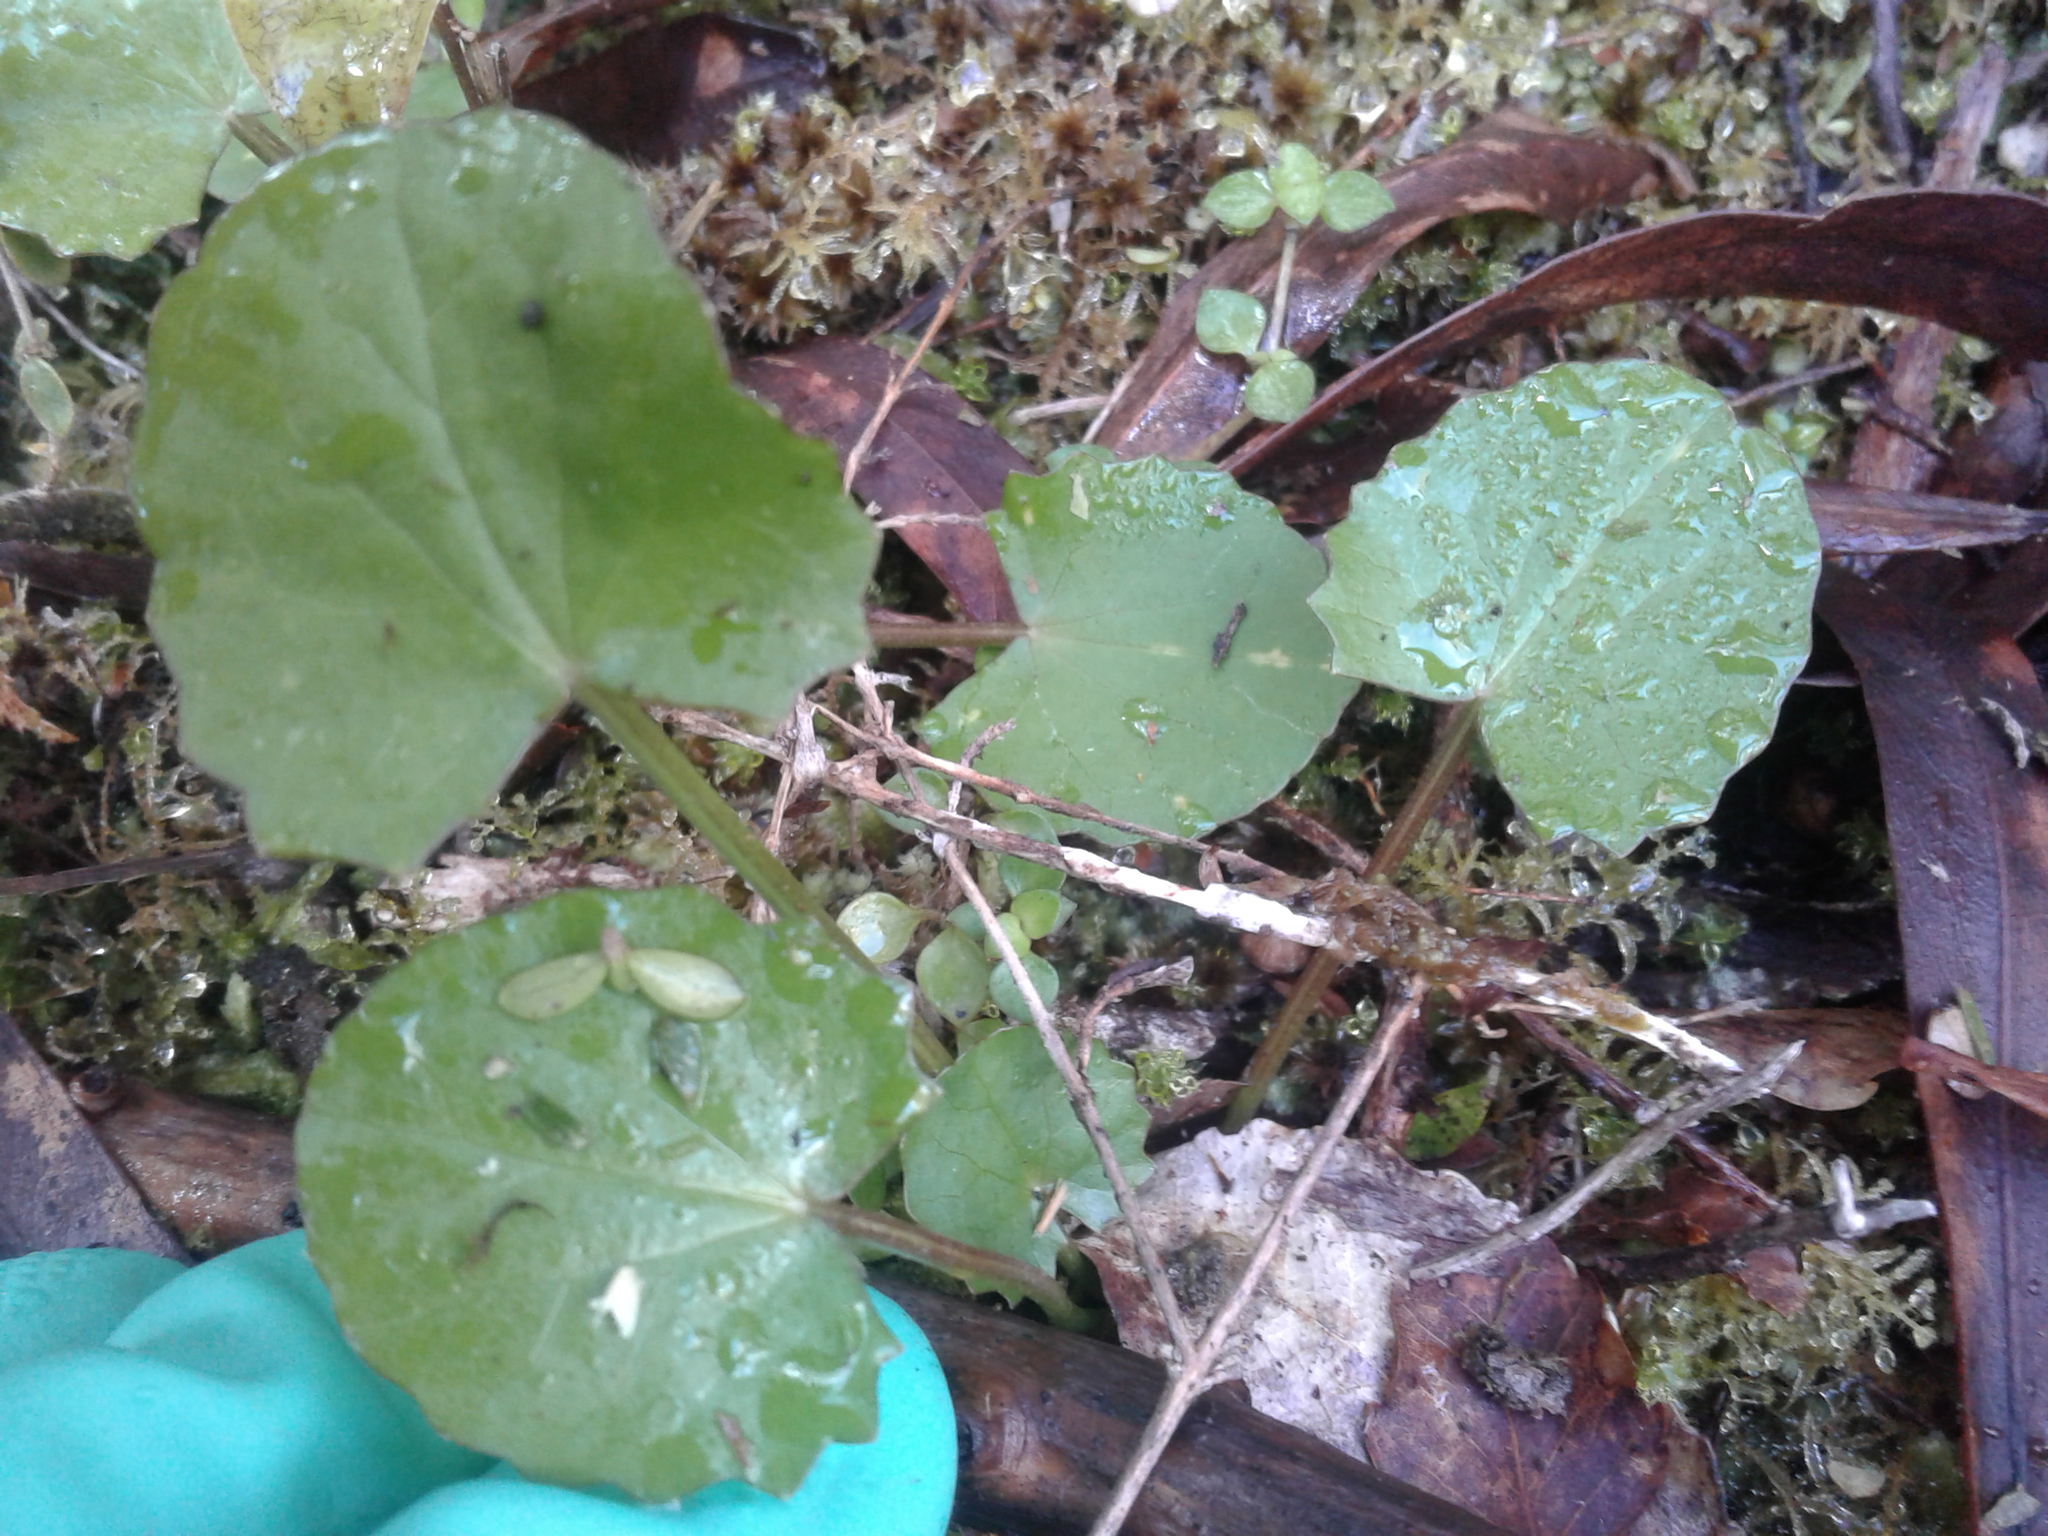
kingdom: Plantae
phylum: Tracheophyta
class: Magnoliopsida
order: Apiales
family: Apiaceae
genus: Centella
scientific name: Centella uniflora
